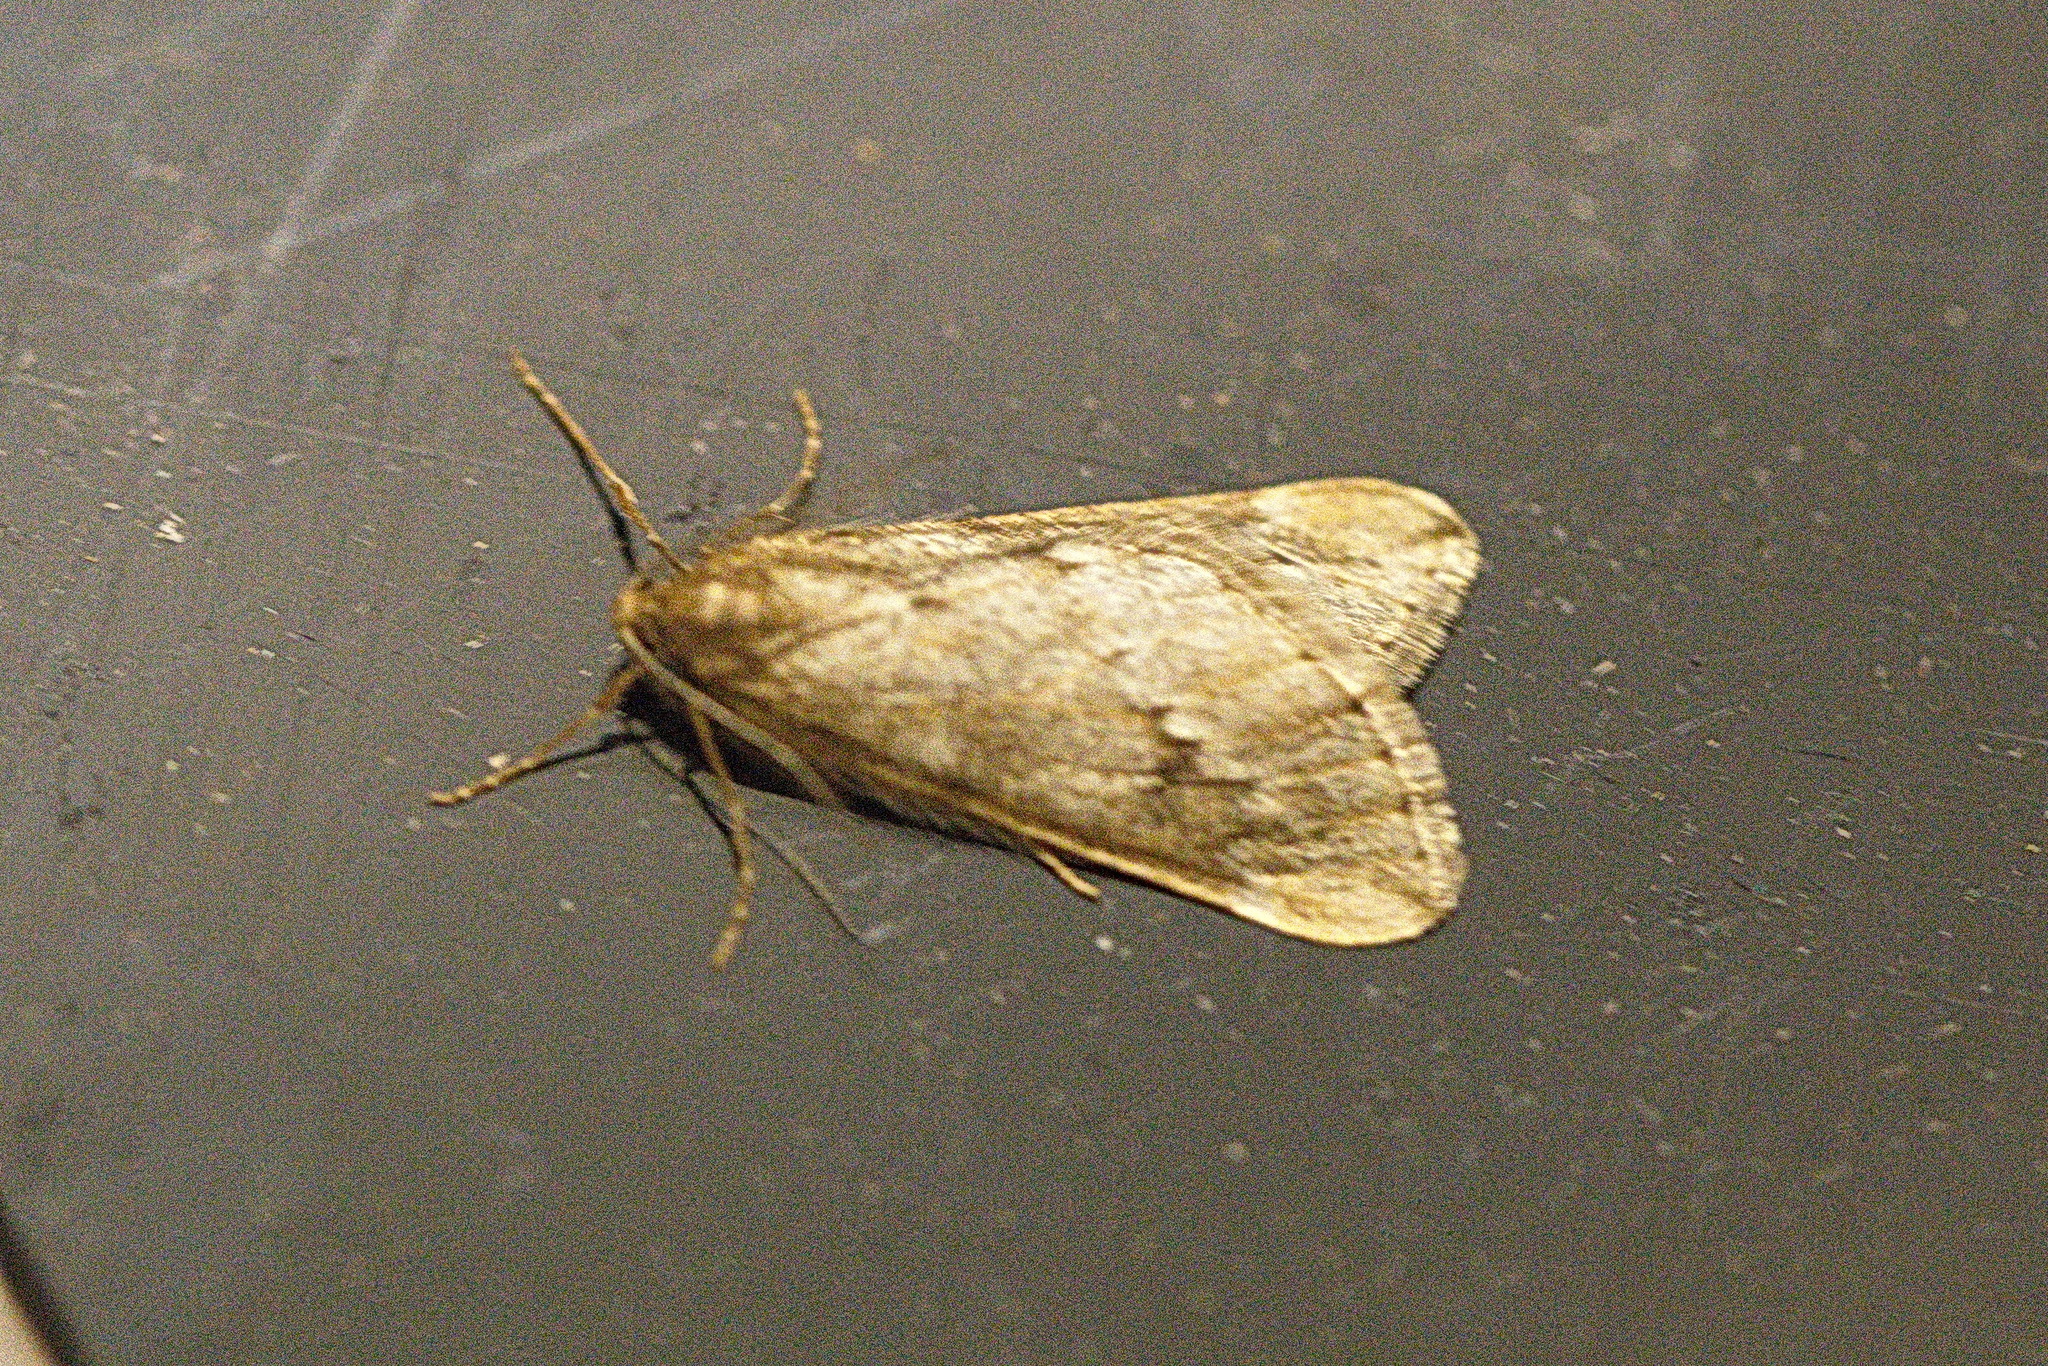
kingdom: Animalia
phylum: Arthropoda
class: Insecta
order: Lepidoptera
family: Geometridae
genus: Alsophila
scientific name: Alsophila aescularia
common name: March moth
